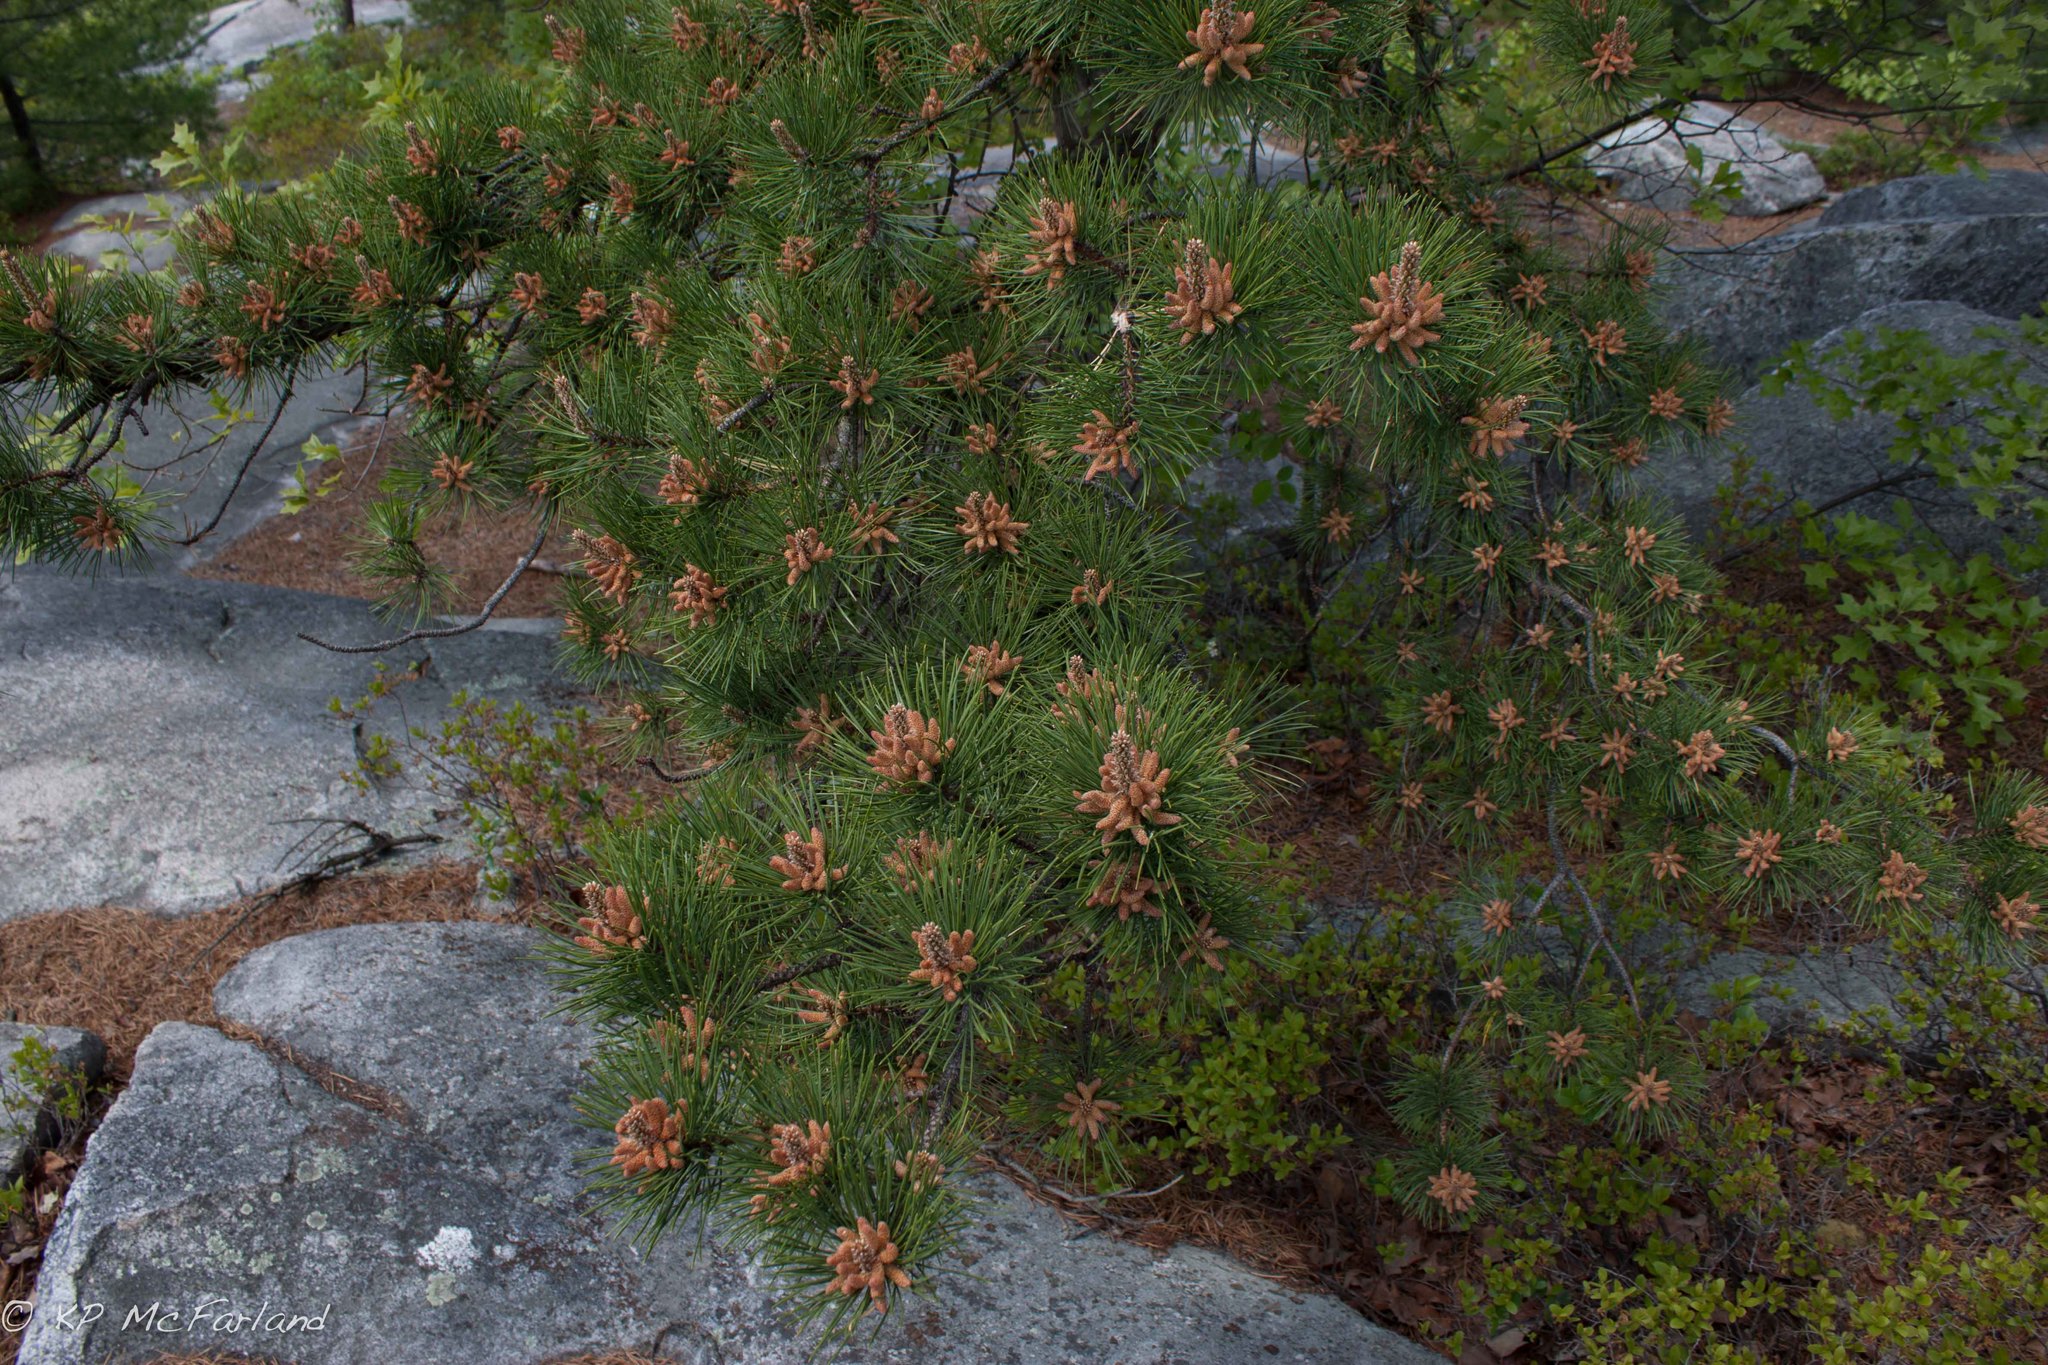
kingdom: Plantae
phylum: Tracheophyta
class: Pinopsida
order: Pinales
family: Pinaceae
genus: Pinus
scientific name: Pinus rigida
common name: Pitch pine
